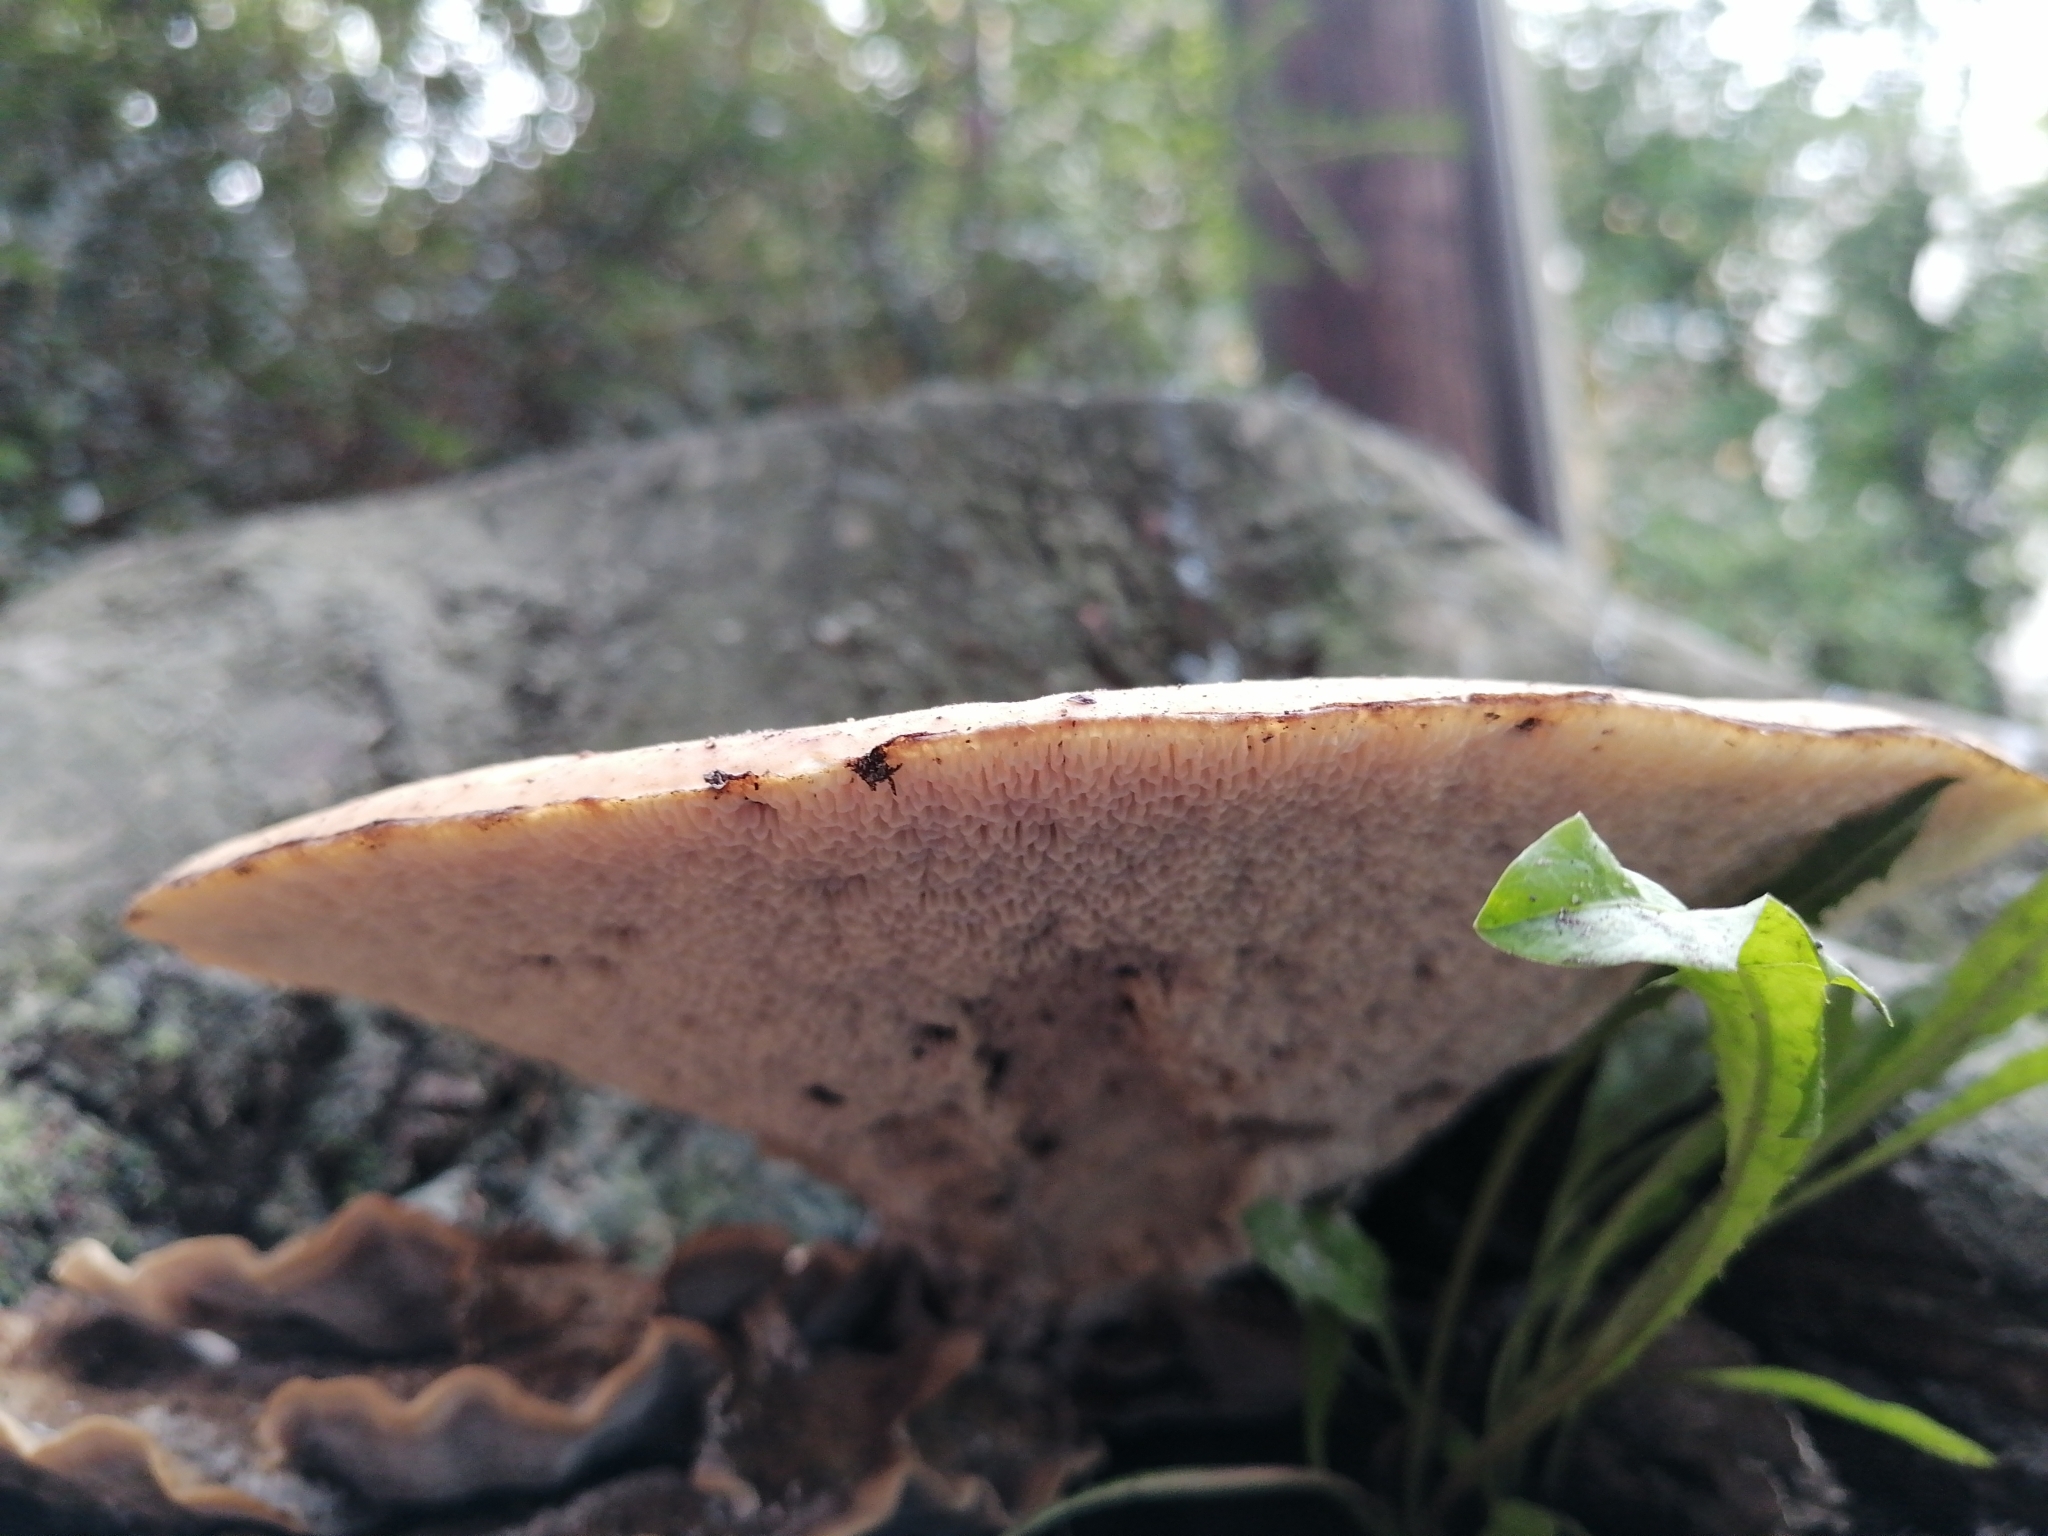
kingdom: Fungi
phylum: Basidiomycota
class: Agaricomycetes
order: Polyporales
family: Polyporaceae
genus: Cerioporus
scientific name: Cerioporus squamosus
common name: Dryad's saddle
